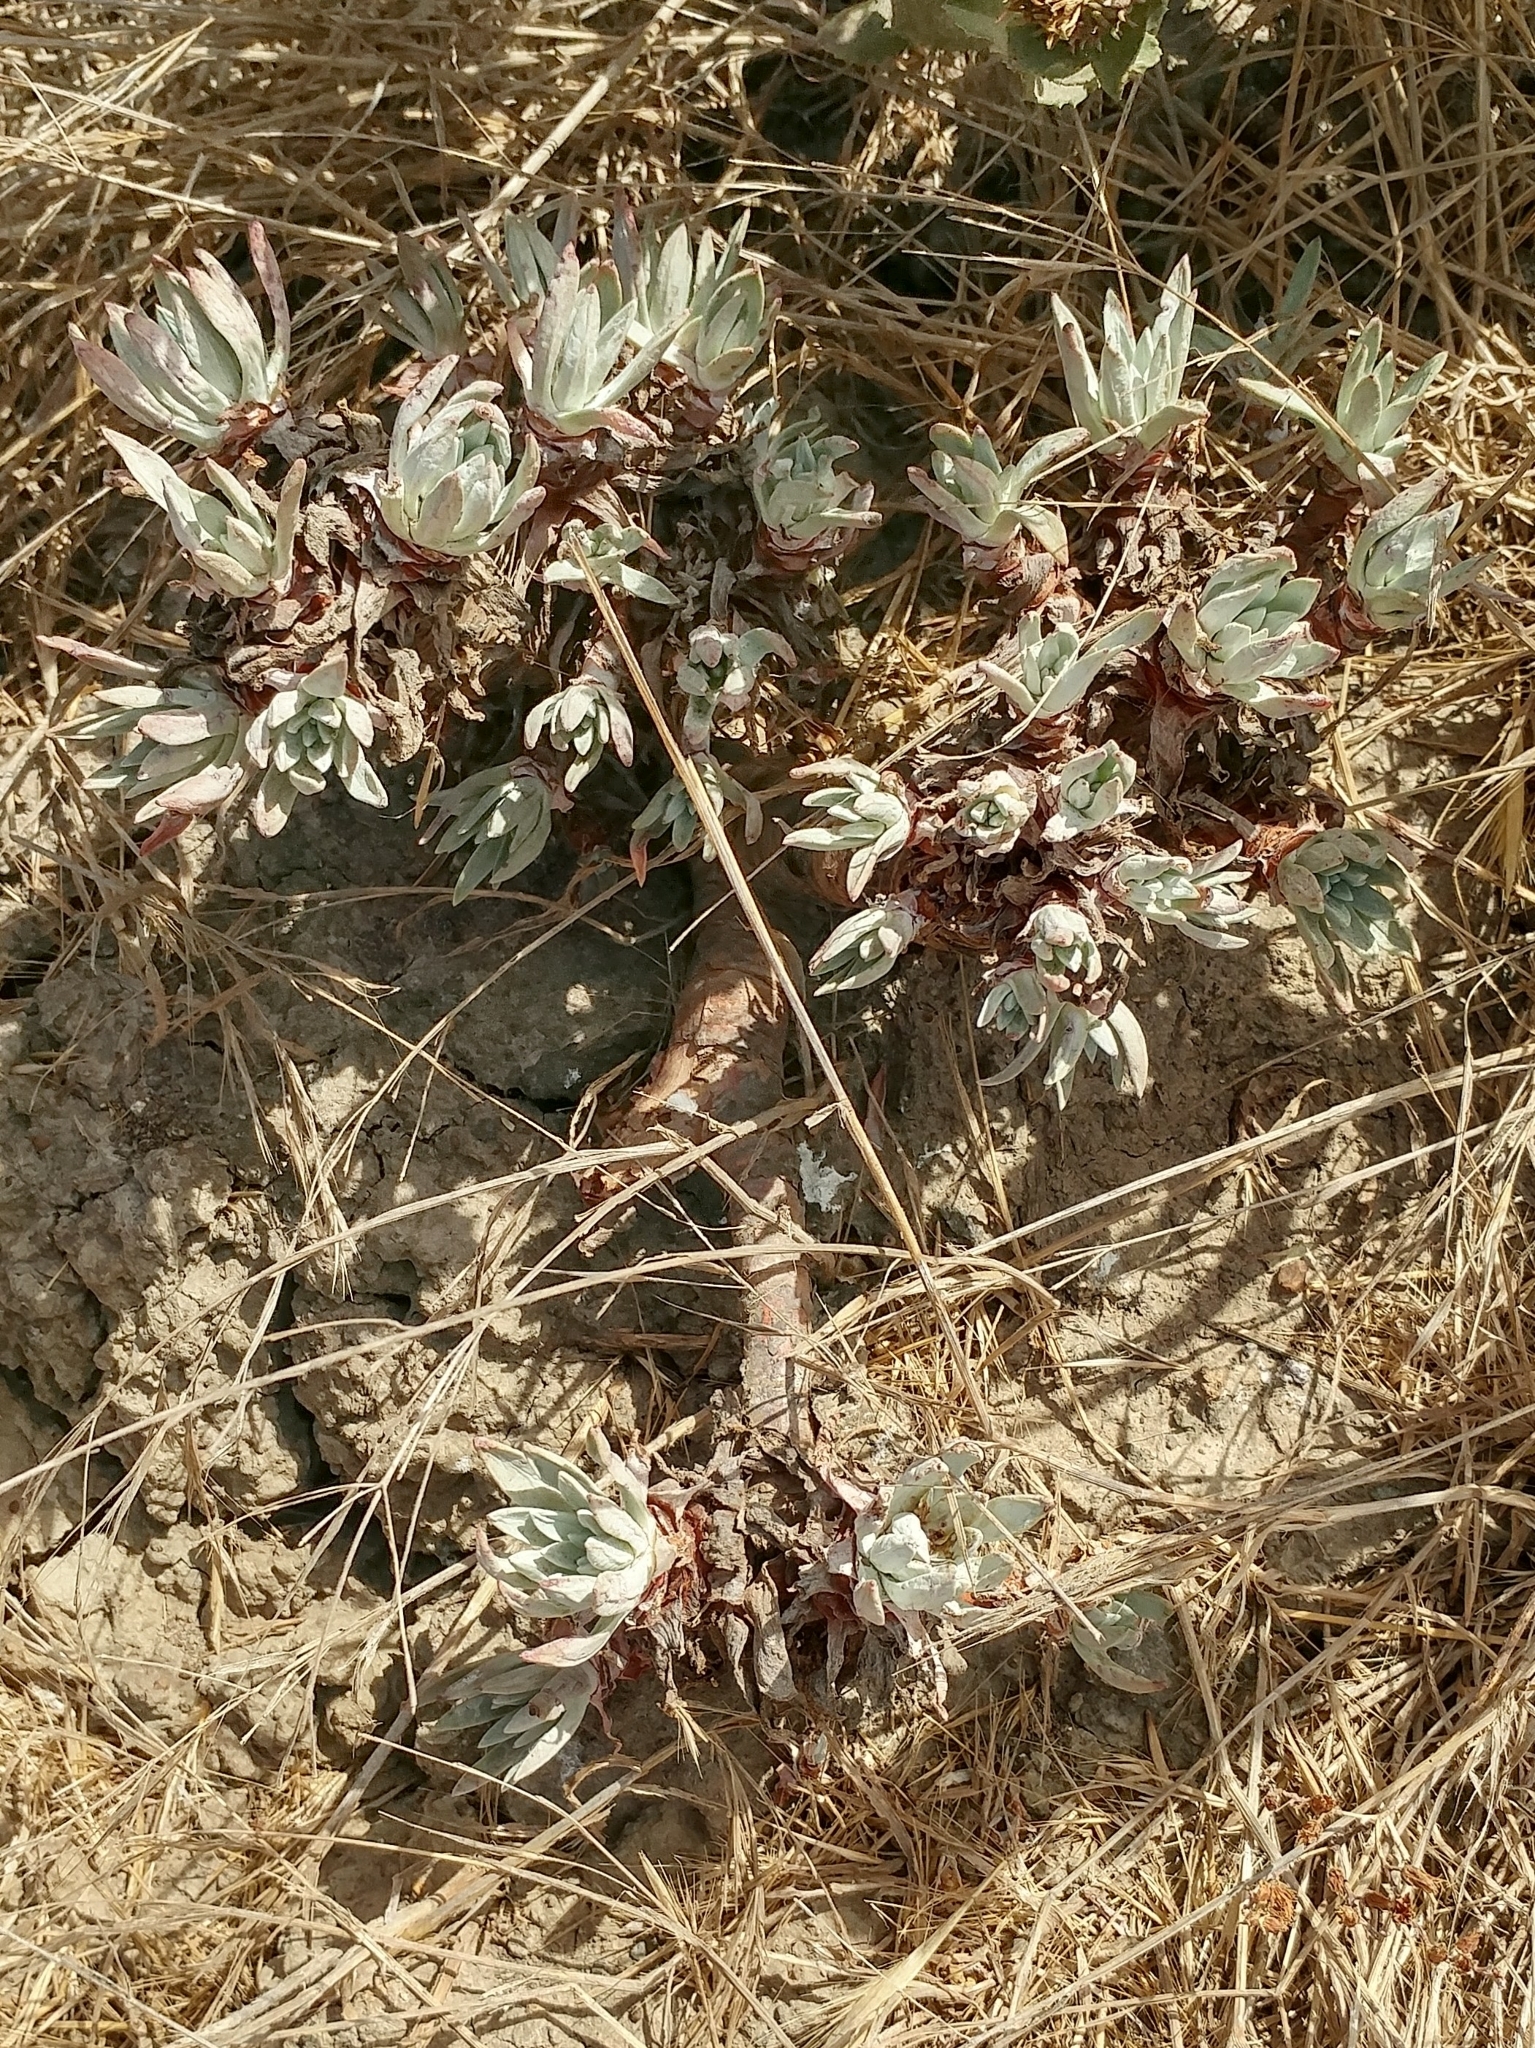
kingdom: Plantae
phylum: Tracheophyta
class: Magnoliopsida
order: Saxifragales
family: Crassulaceae
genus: Dudleya
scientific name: Dudleya caespitosa
